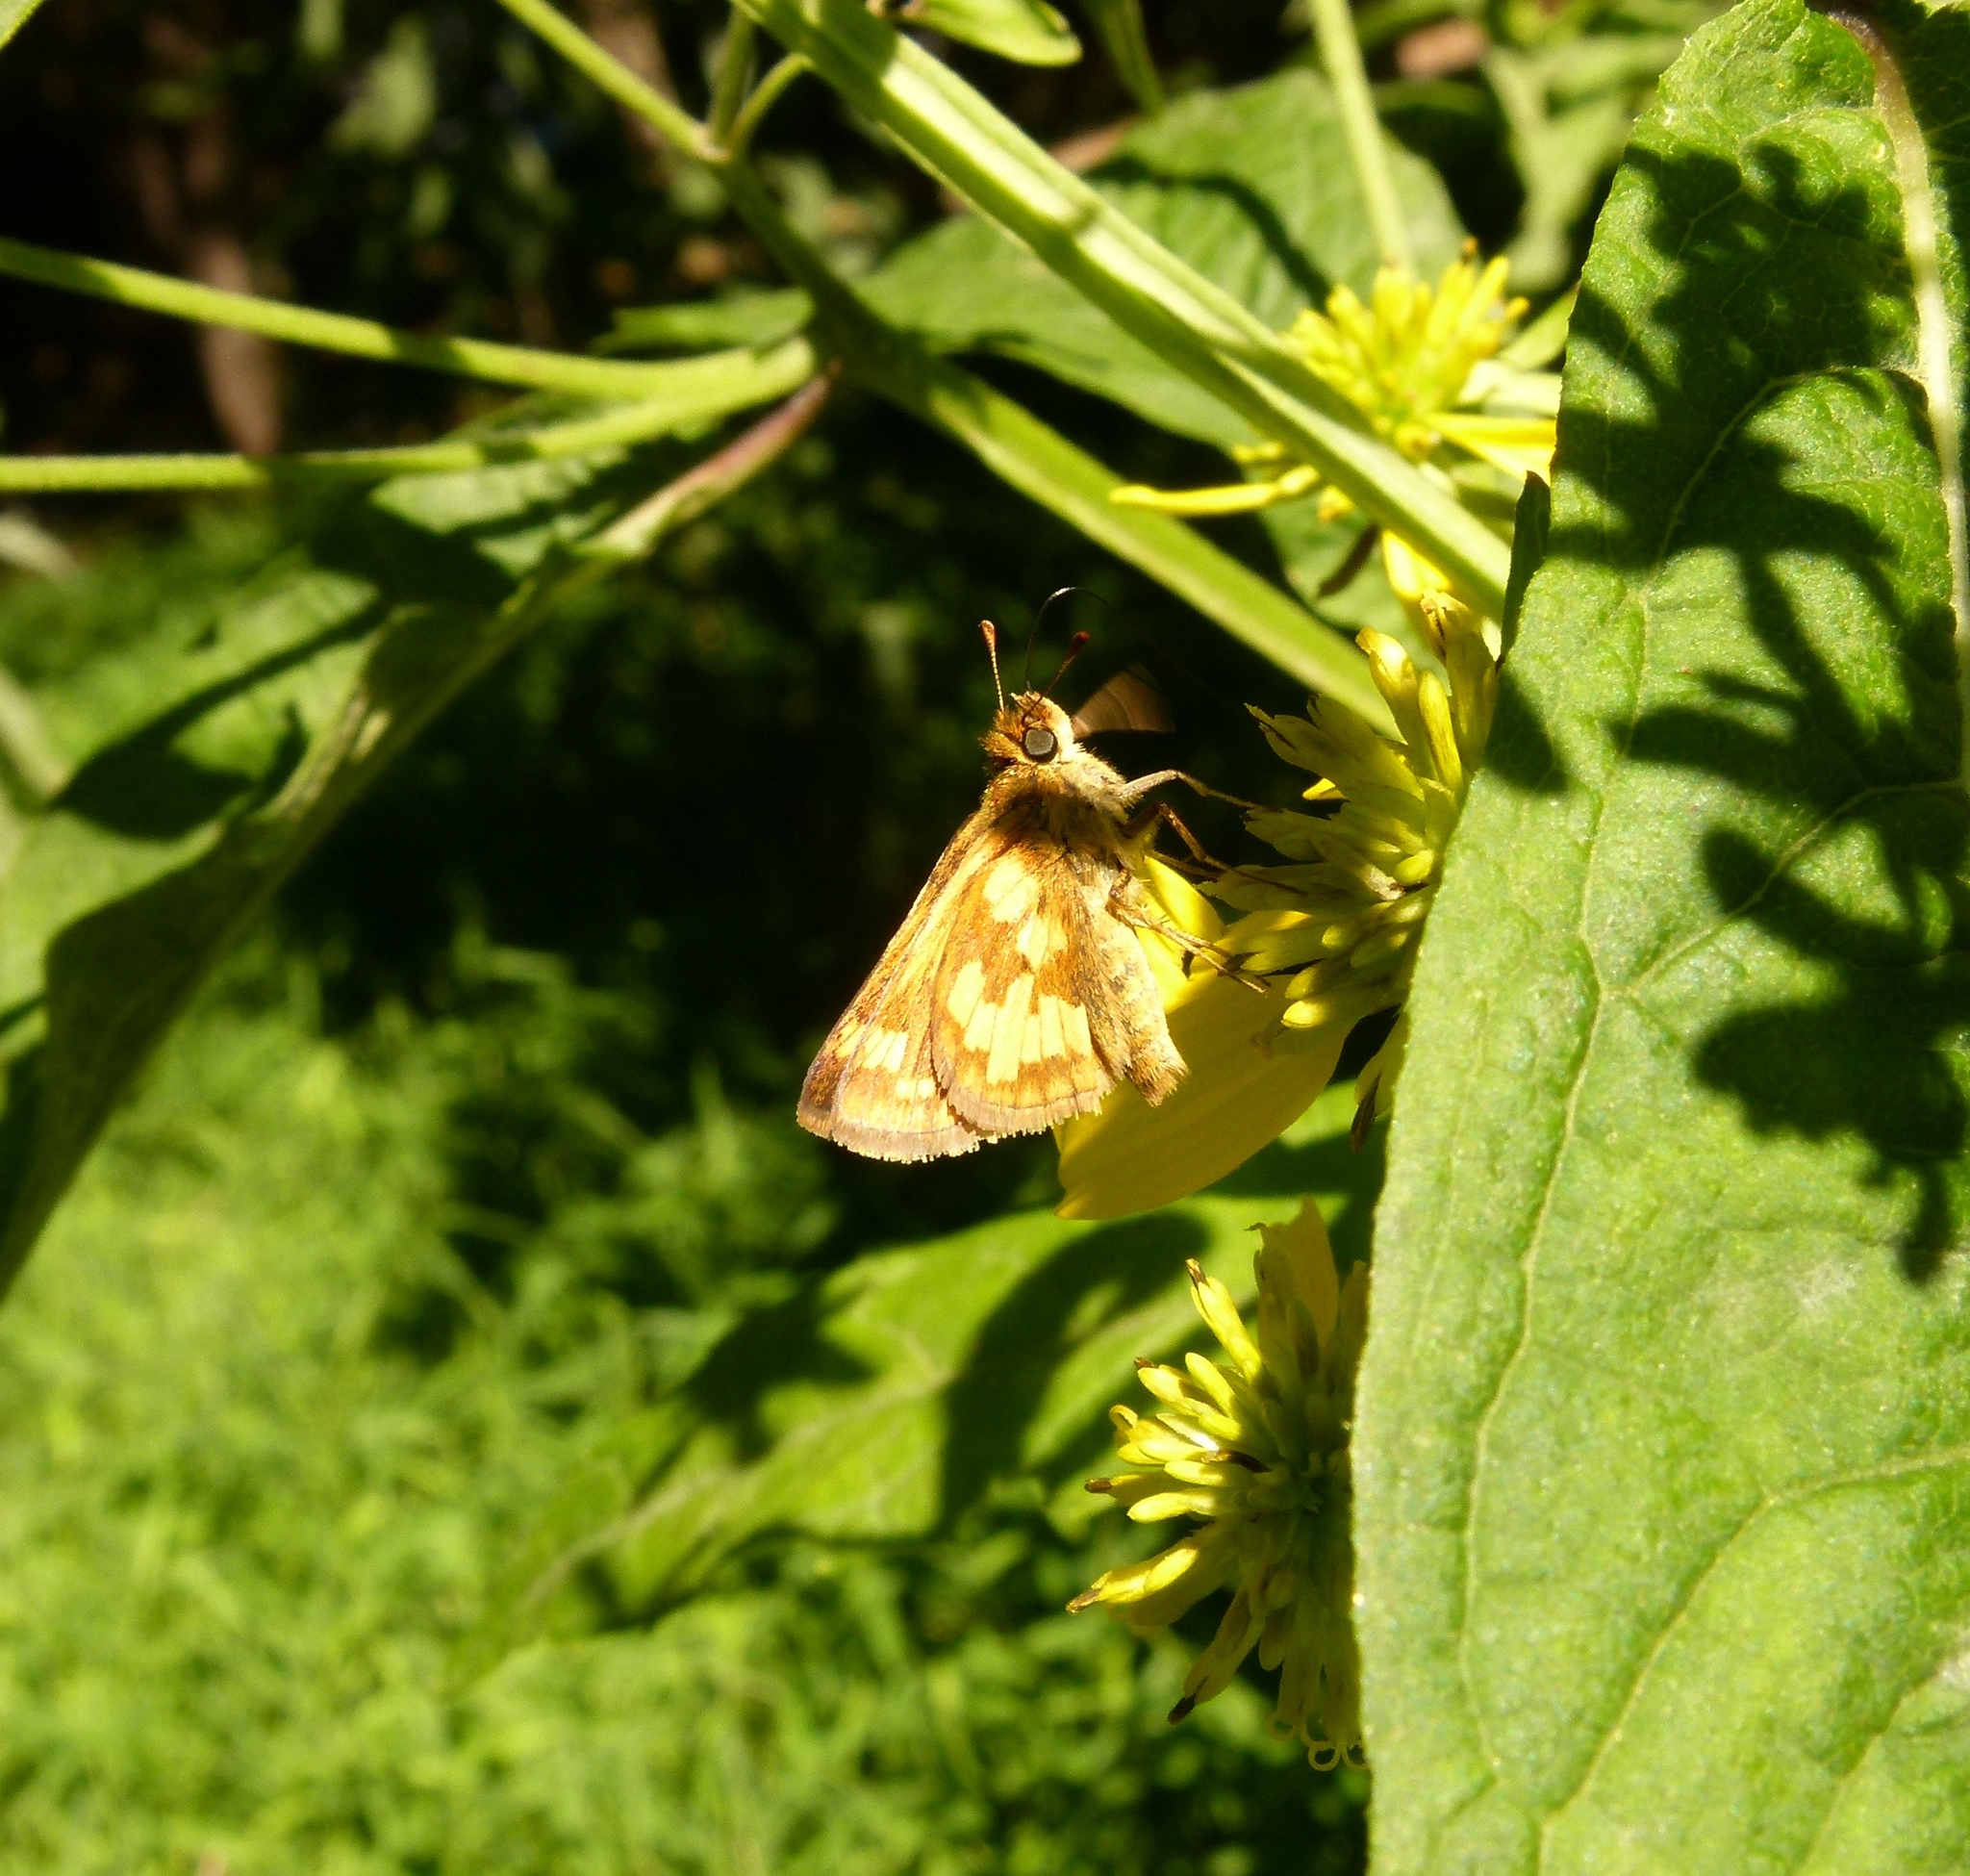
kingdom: Animalia
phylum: Arthropoda
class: Insecta
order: Lepidoptera
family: Hesperiidae
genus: Polites
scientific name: Polites coras
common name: Peck's skipper
